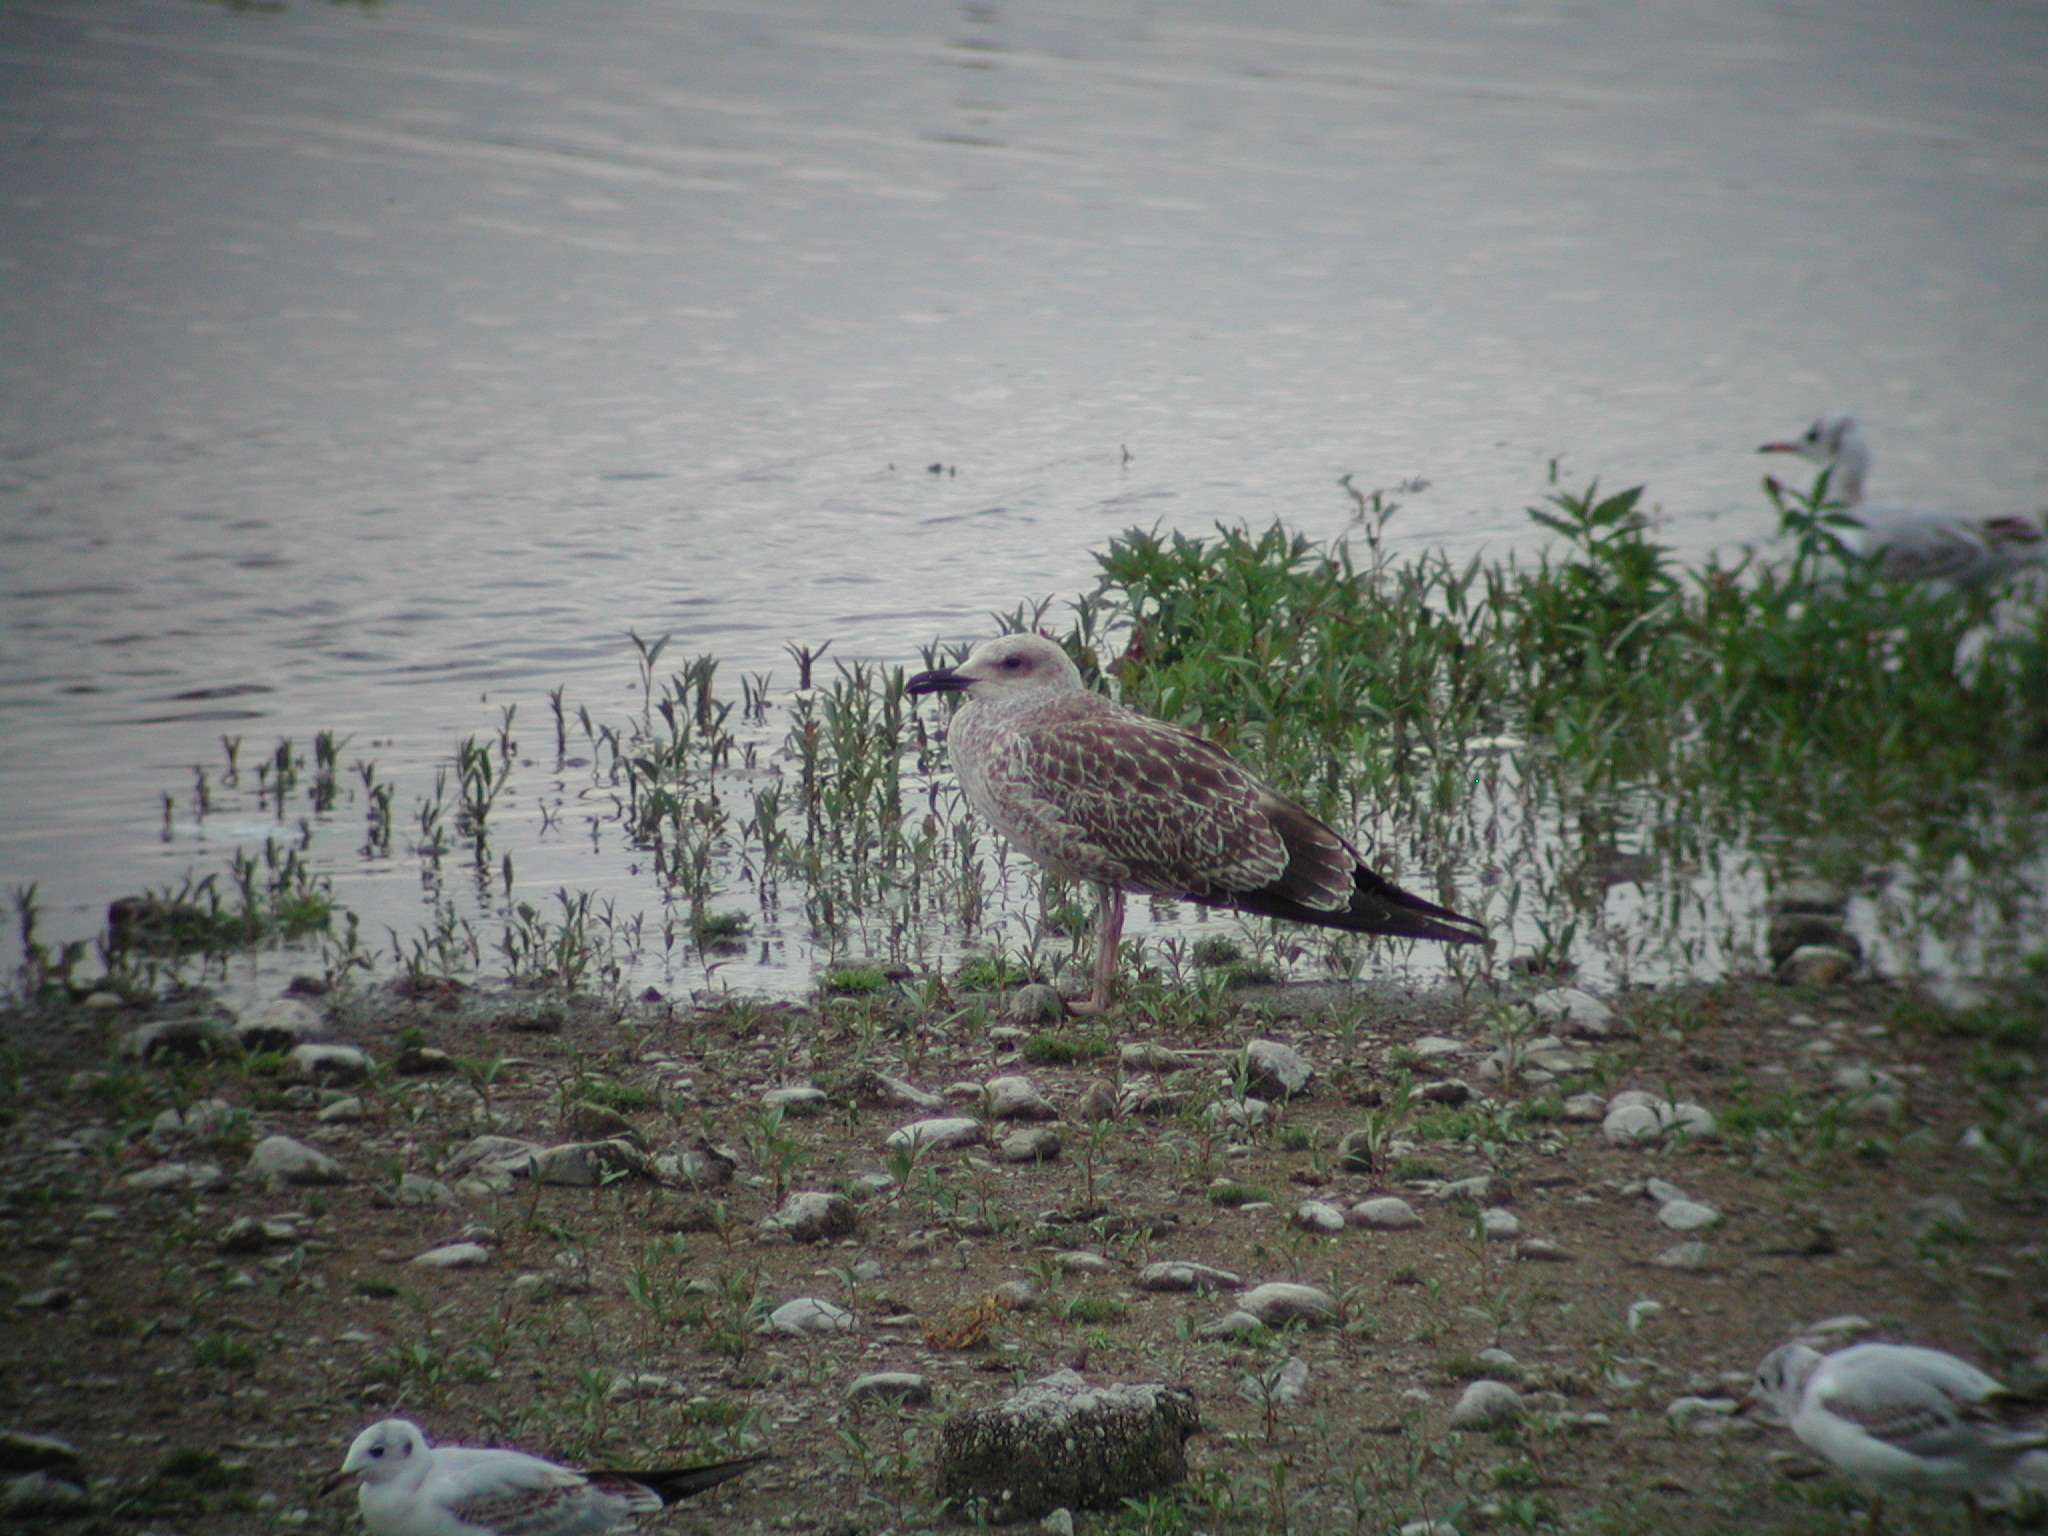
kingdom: Animalia
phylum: Chordata
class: Aves
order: Charadriiformes
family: Laridae
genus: Larus
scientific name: Larus michahellis
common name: Yellow-legged gull
